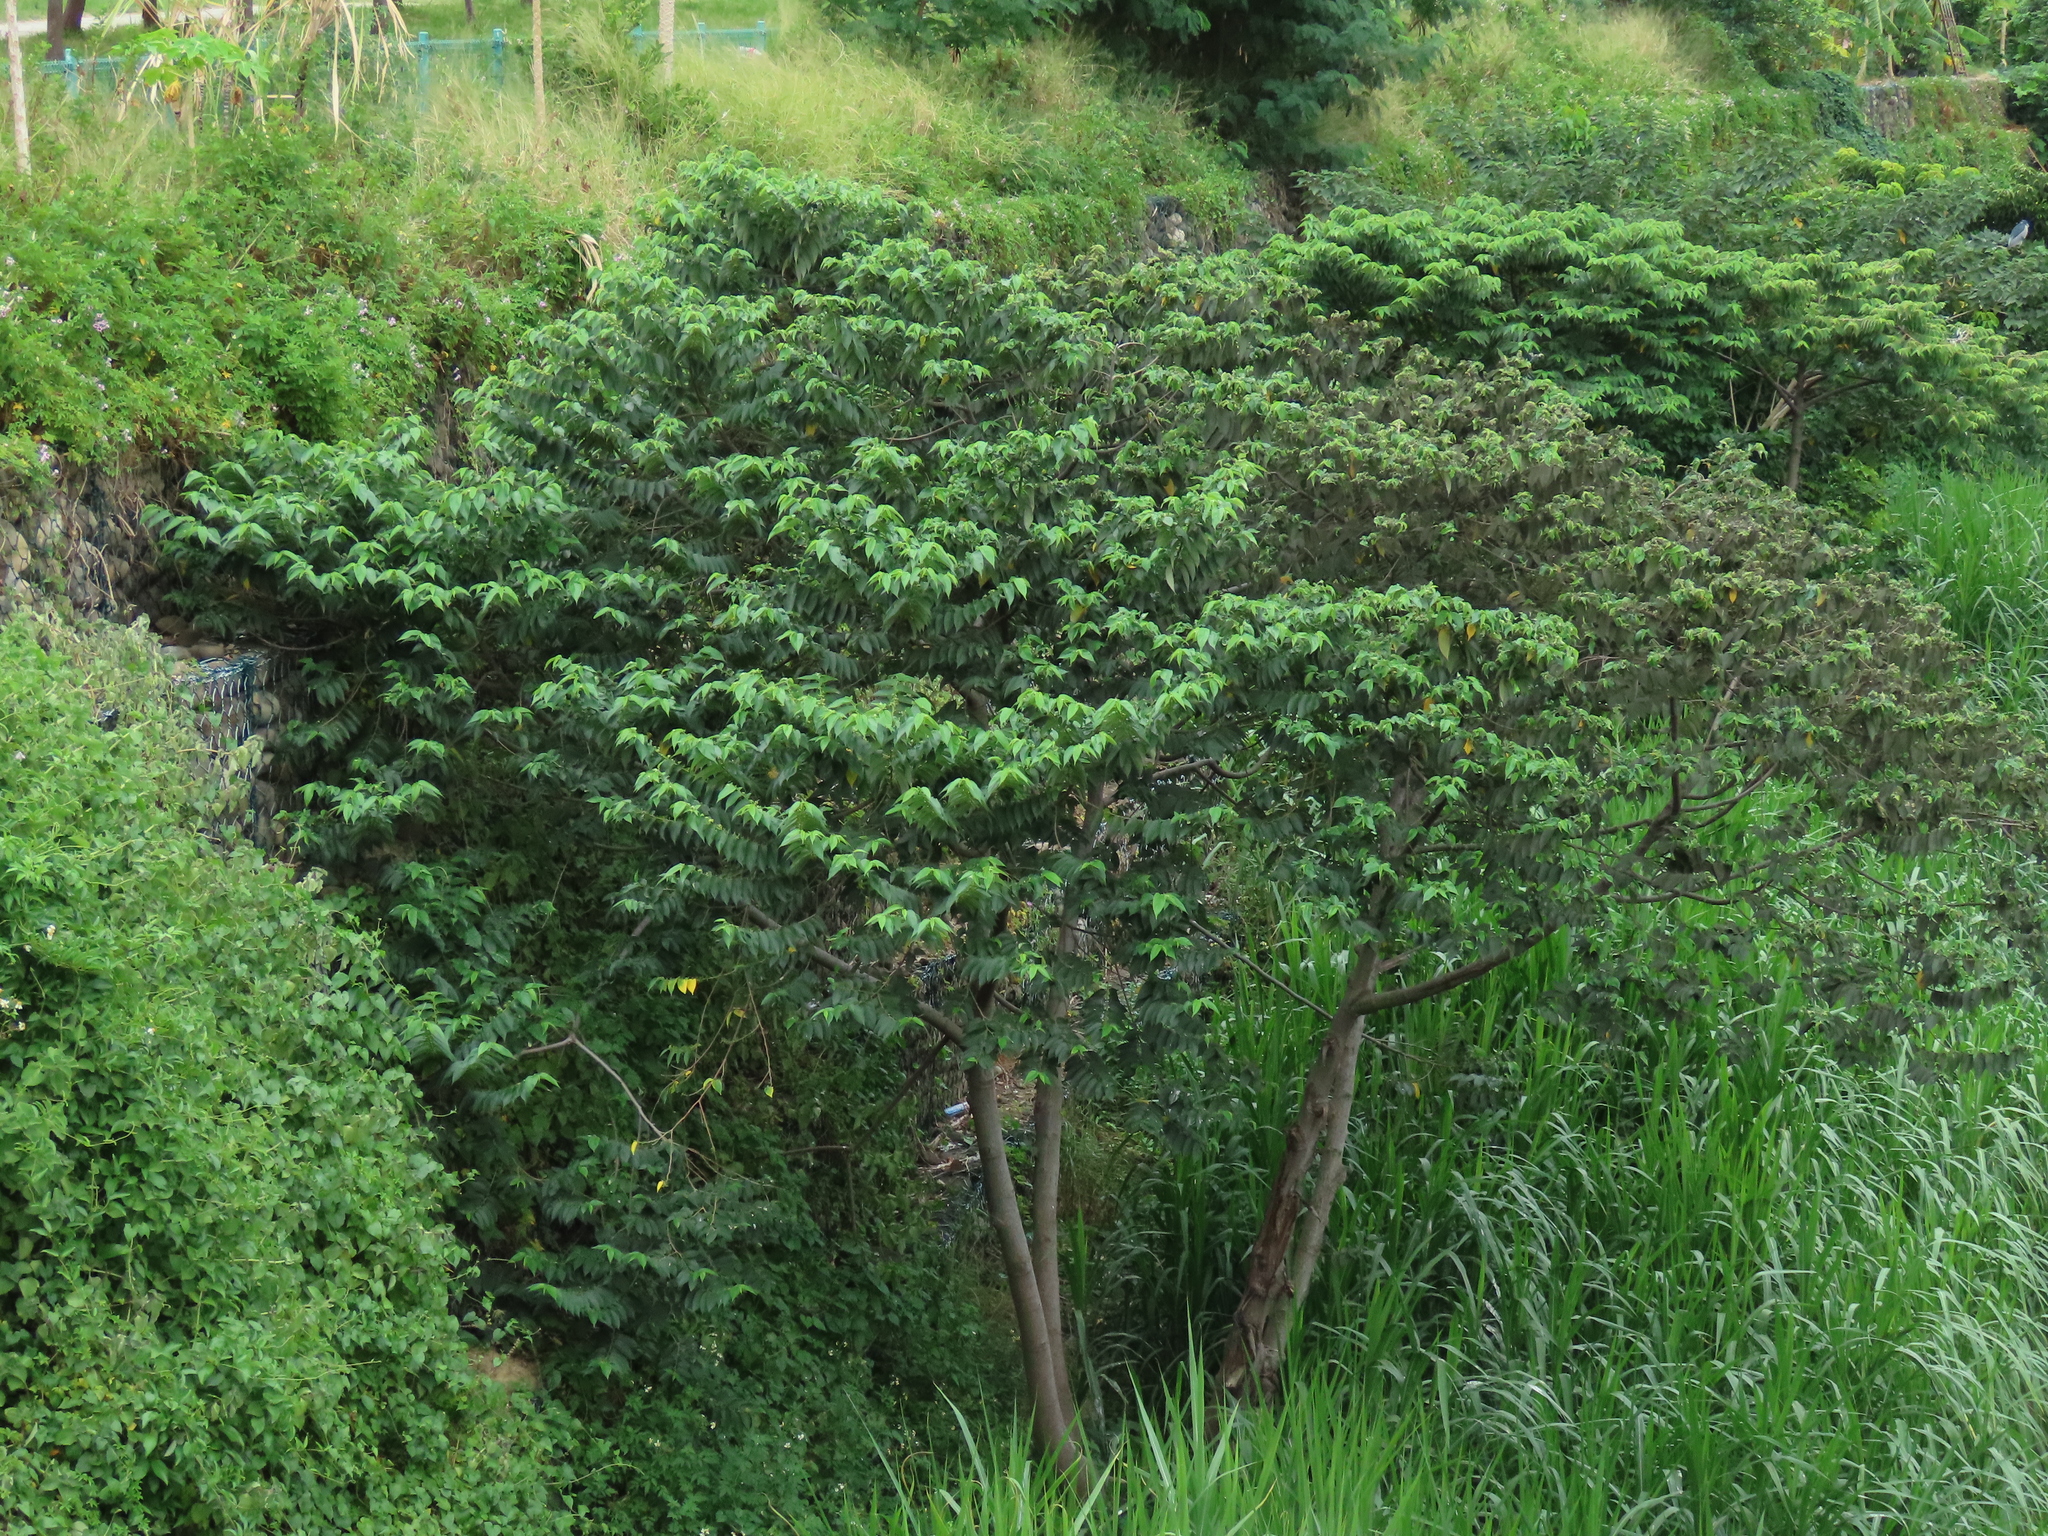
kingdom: Plantae
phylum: Tracheophyta
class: Magnoliopsida
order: Rosales
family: Cannabaceae
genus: Trema
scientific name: Trema orientale
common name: Indian charcoal tree
